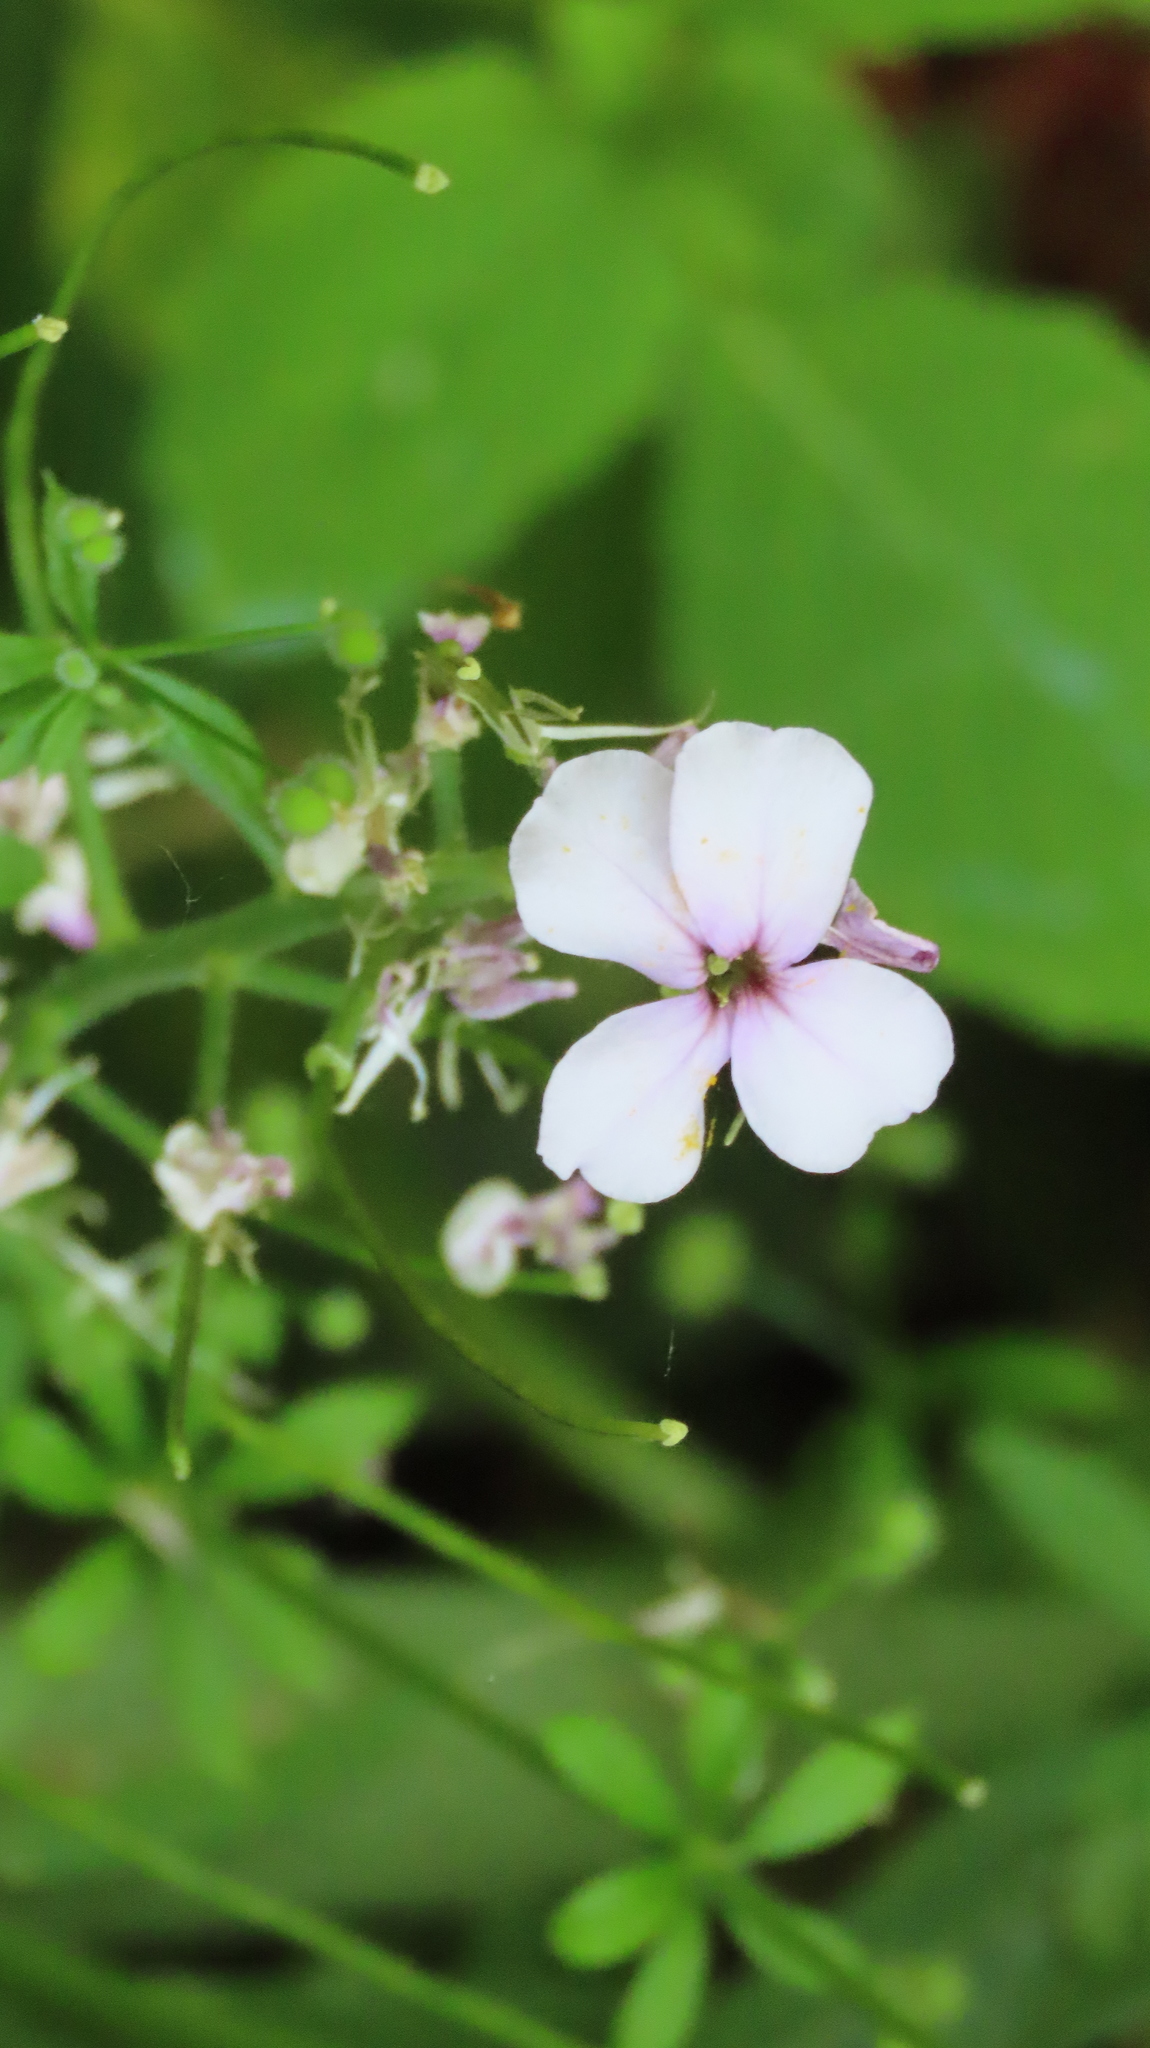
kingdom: Plantae
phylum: Tracheophyta
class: Magnoliopsida
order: Brassicales
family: Brassicaceae
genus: Hesperis
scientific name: Hesperis matronalis
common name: Dame's-violet
